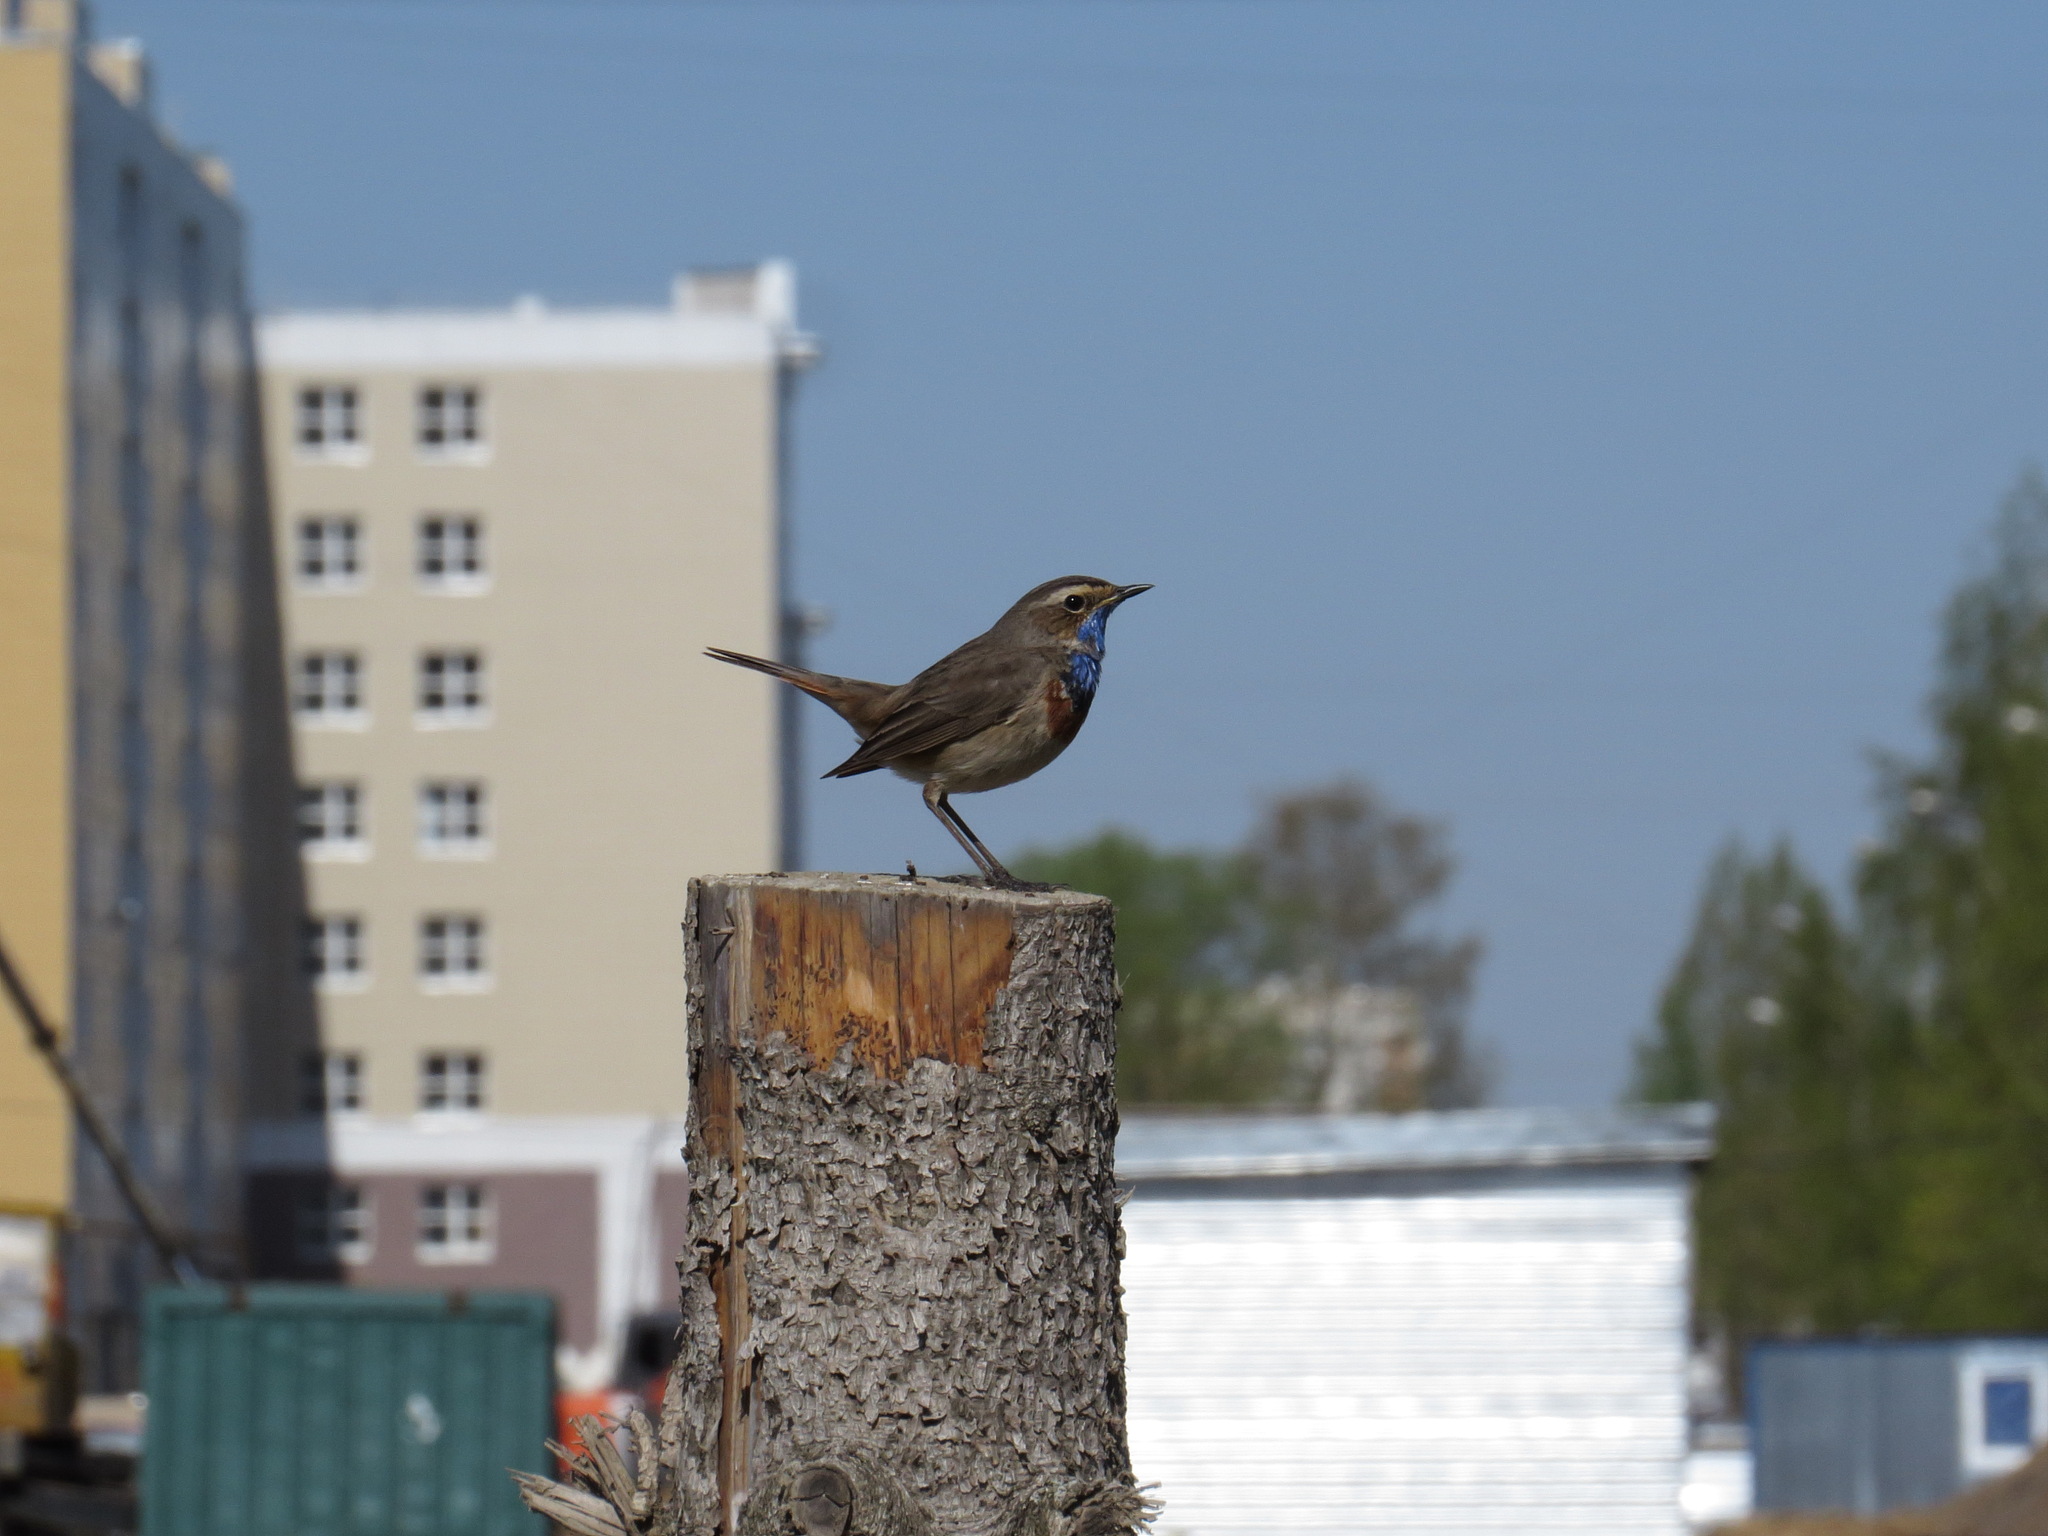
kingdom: Animalia
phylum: Chordata
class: Aves
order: Passeriformes
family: Muscicapidae
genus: Luscinia
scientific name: Luscinia svecica
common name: Bluethroat
